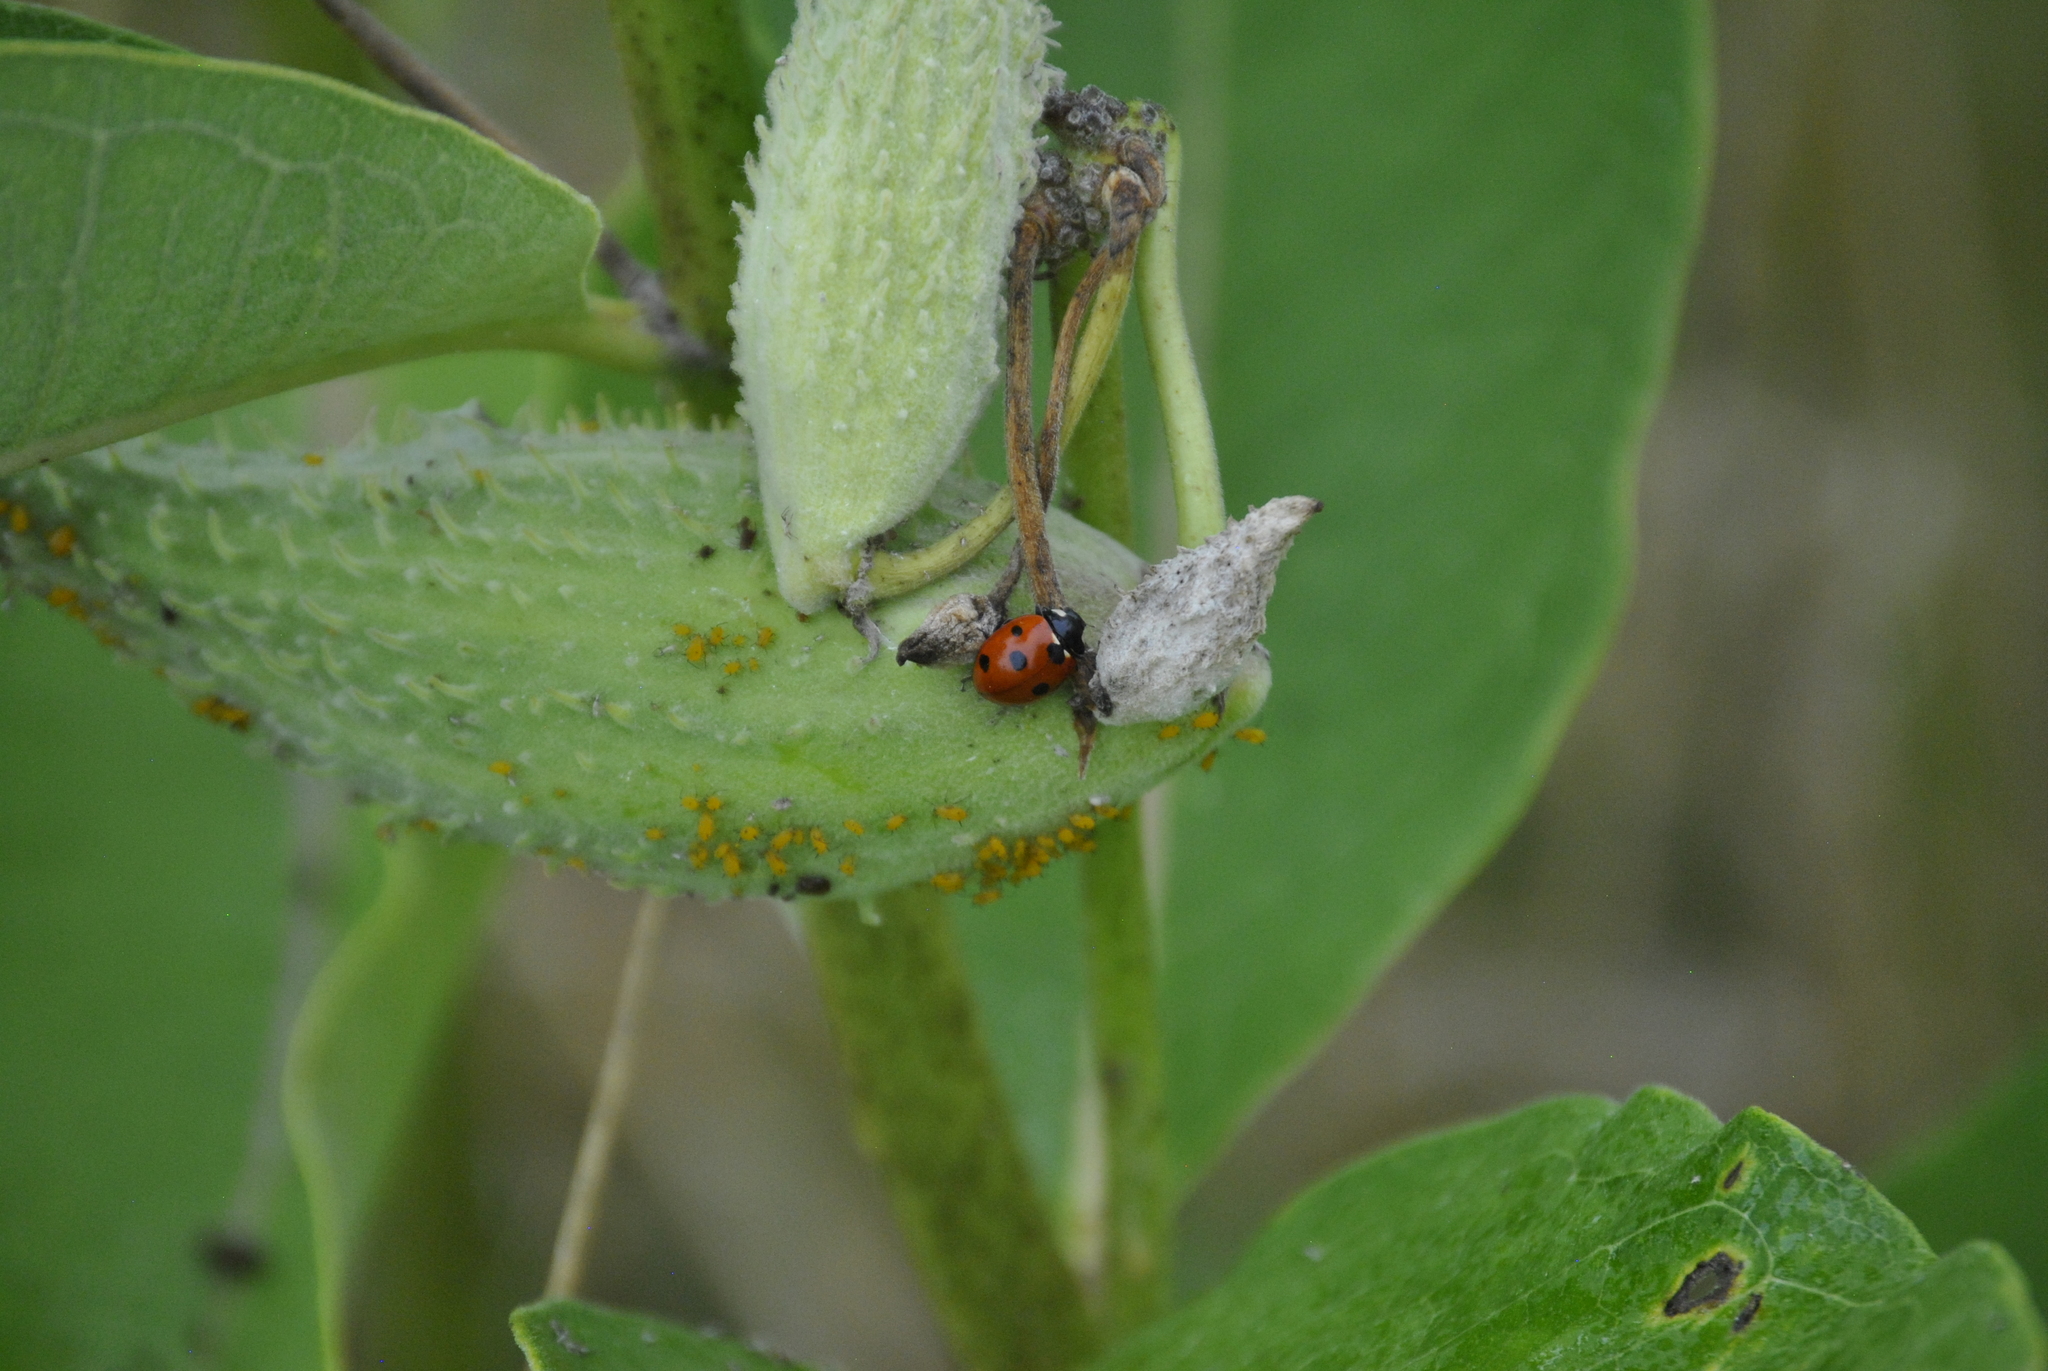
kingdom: Animalia
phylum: Arthropoda
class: Insecta
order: Coleoptera
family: Coccinellidae
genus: Coccinella
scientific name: Coccinella septempunctata
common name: Sevenspotted lady beetle
